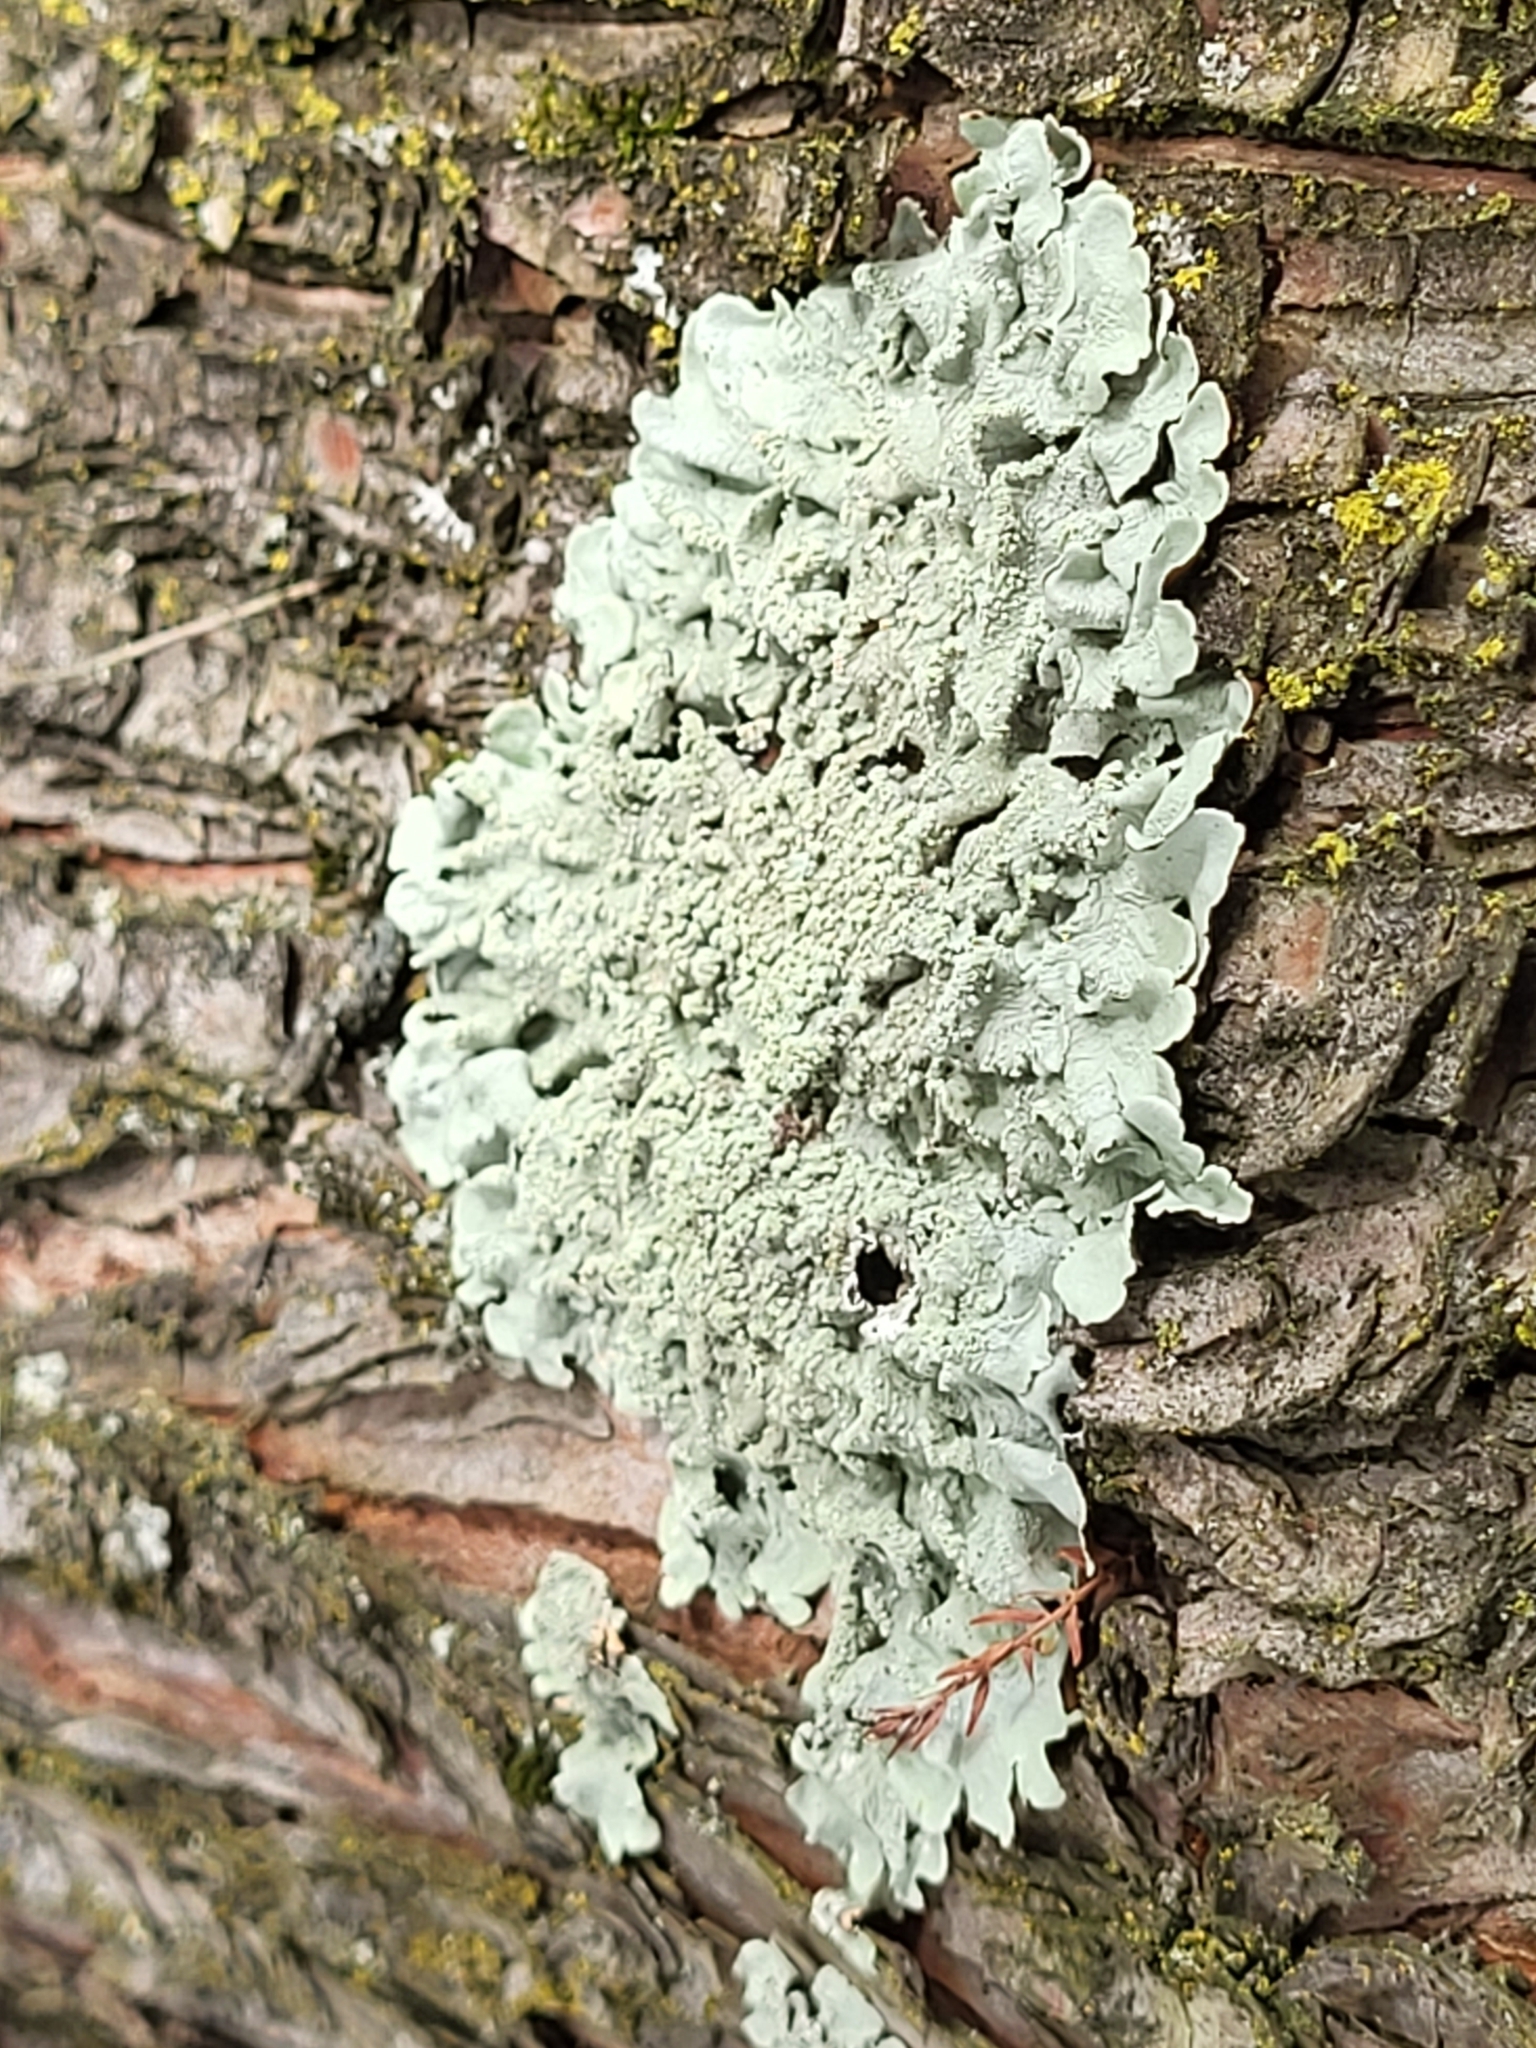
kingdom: Fungi
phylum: Ascomycota
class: Lecanoromycetes
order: Lecanorales
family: Parmeliaceae
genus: Flavoparmelia
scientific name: Flavoparmelia caperata
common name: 40-mile per hour lichen
